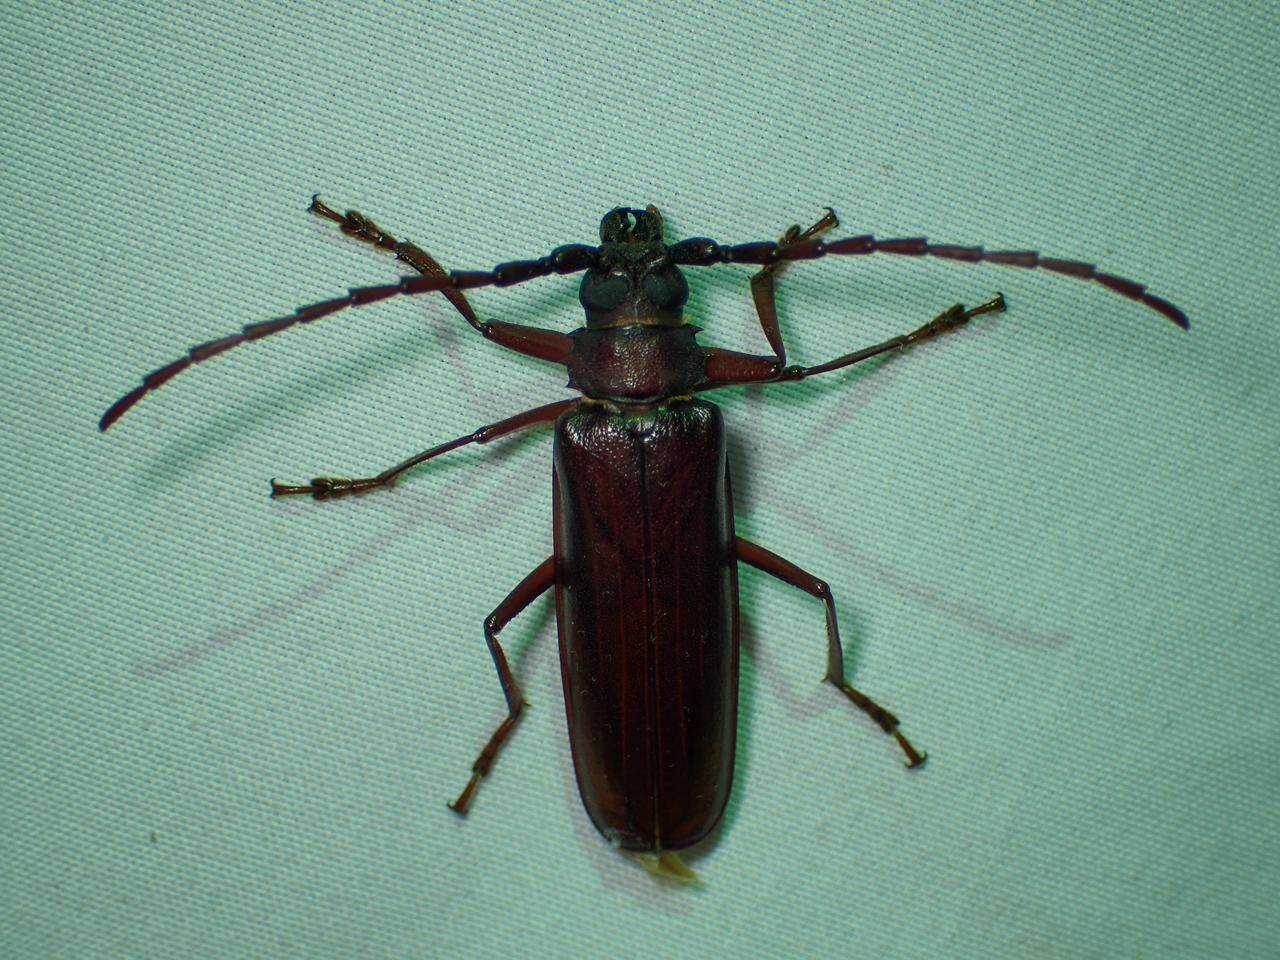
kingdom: Animalia
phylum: Arthropoda
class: Insecta
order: Coleoptera
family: Cerambycidae
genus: Orthosoma
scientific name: Orthosoma brunneum
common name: Brown prionid beetle
